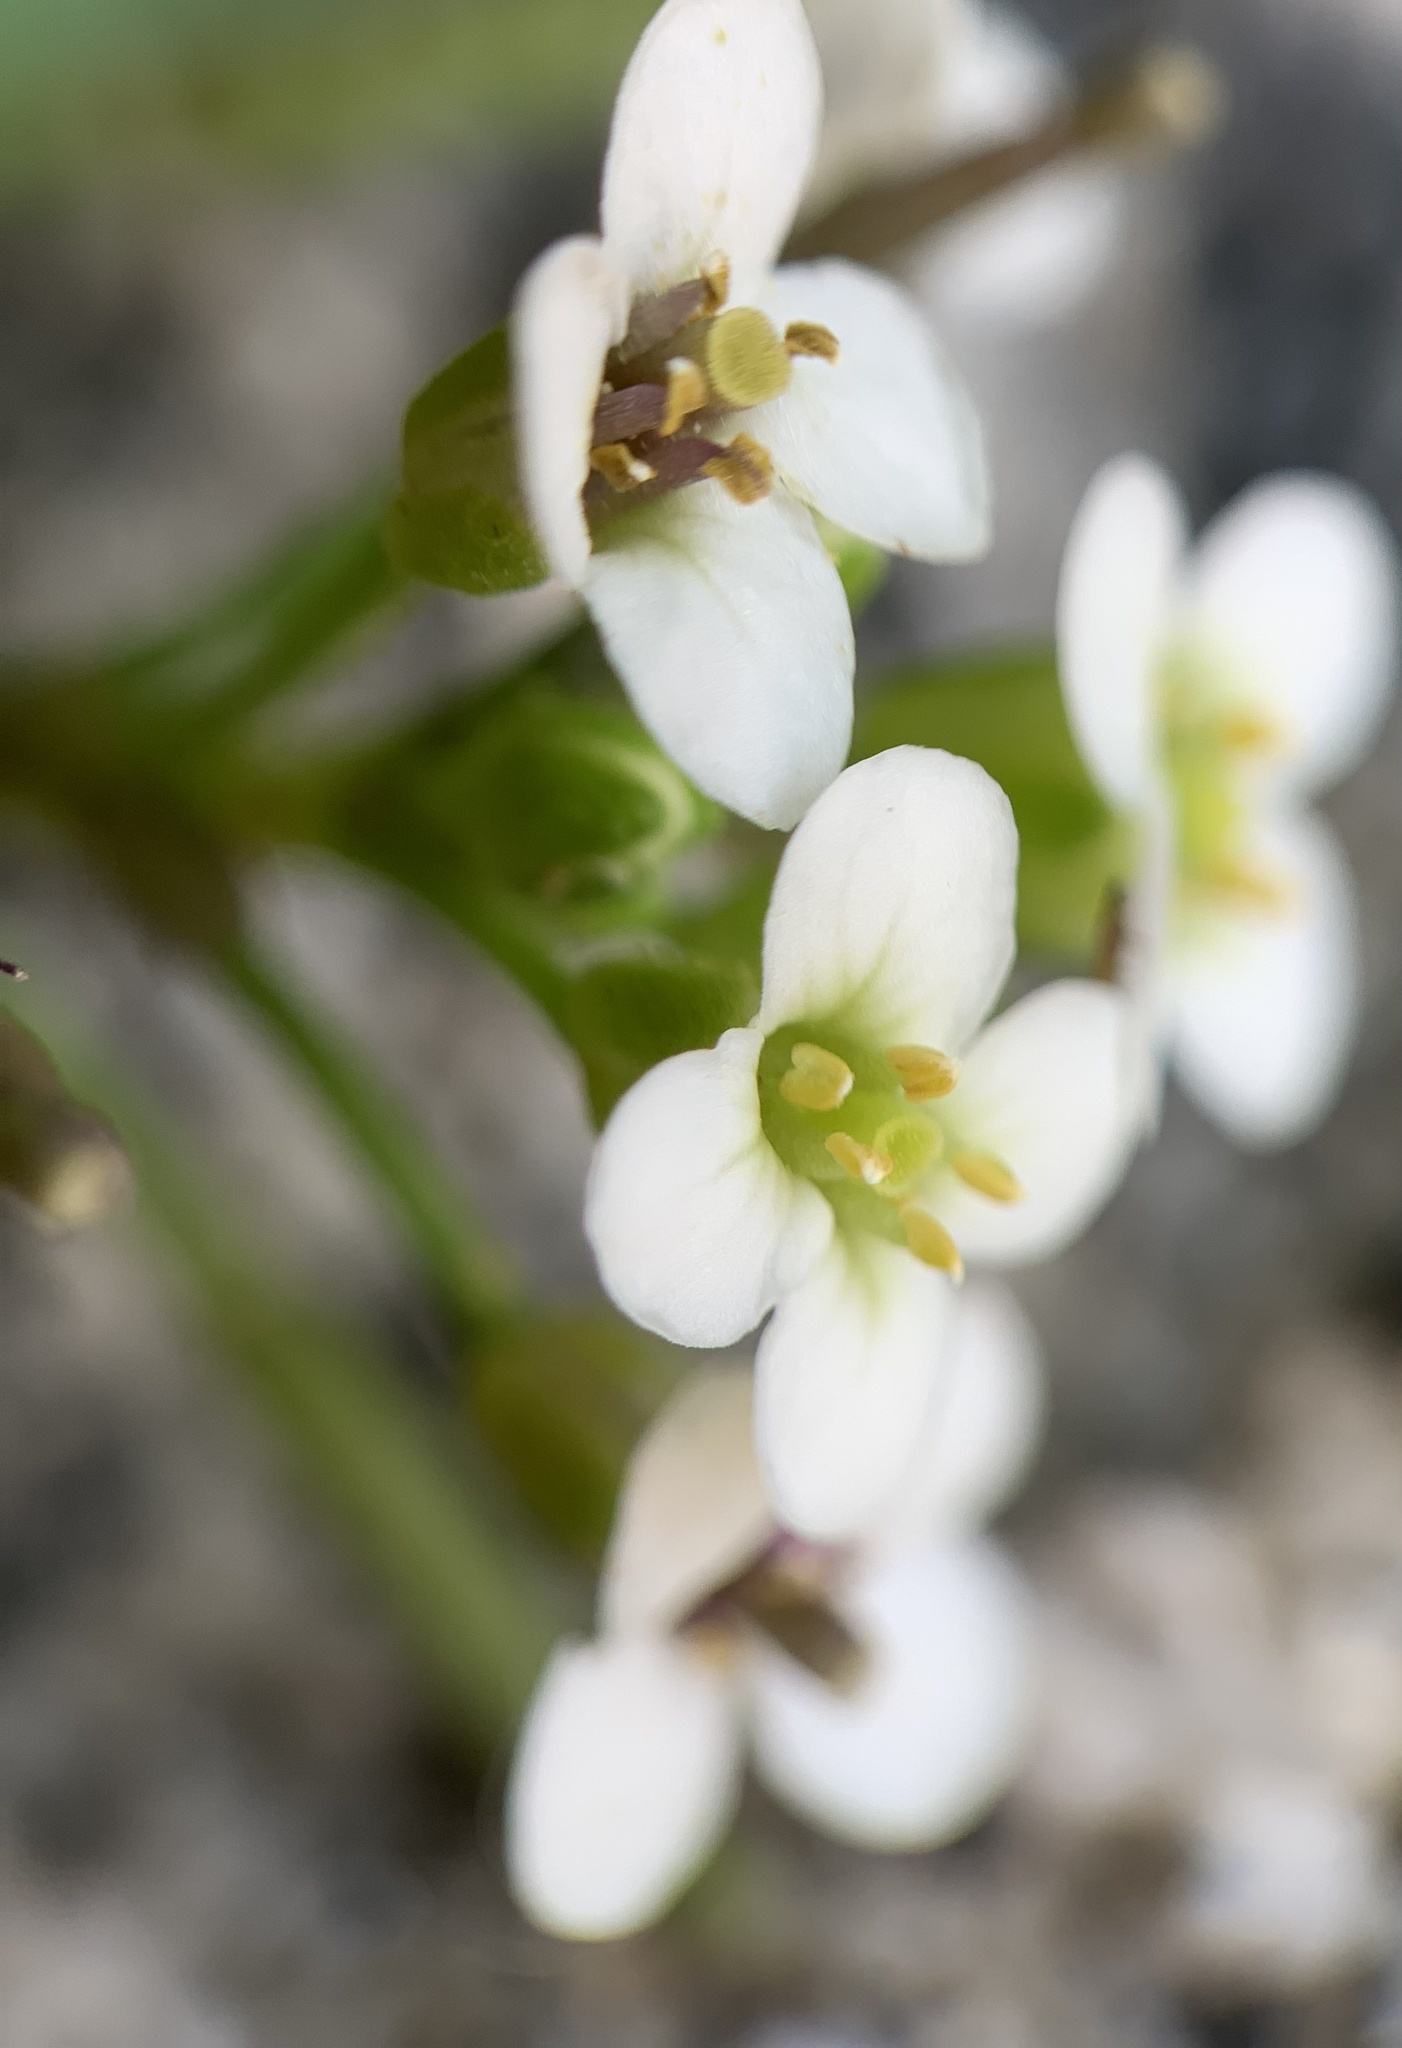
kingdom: Plantae
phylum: Tracheophyta
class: Magnoliopsida
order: Brassicales
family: Brassicaceae
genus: Nasturtium
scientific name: Nasturtium officinale
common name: Watercress
